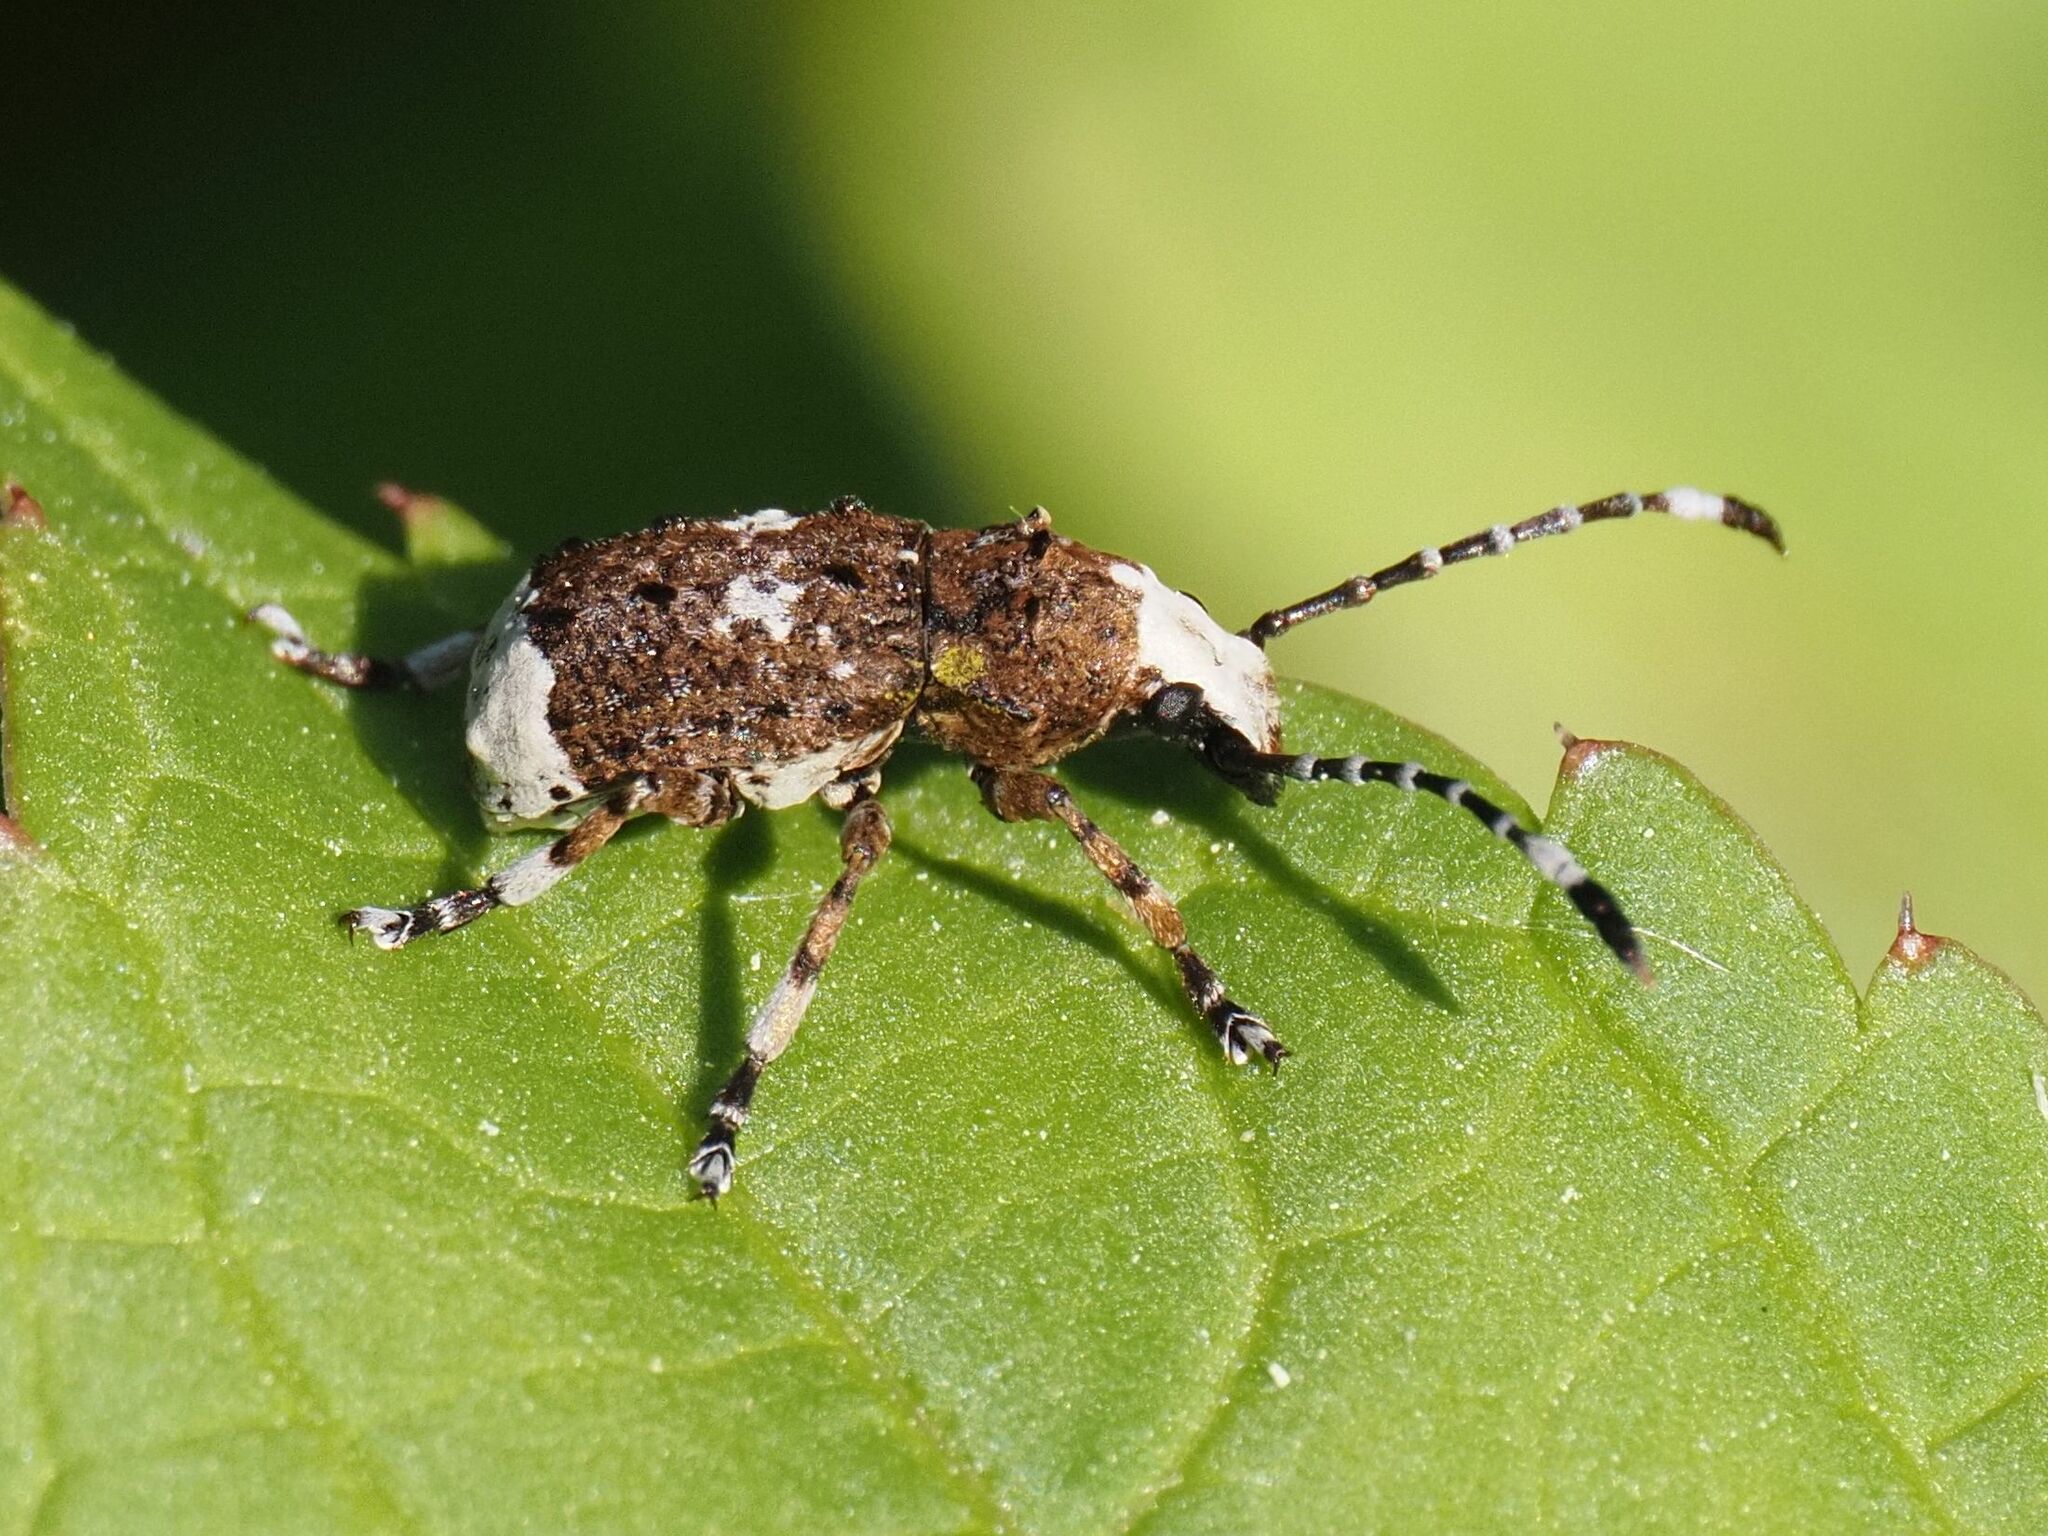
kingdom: Animalia
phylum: Arthropoda
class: Insecta
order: Coleoptera
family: Anthribidae
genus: Platystomos
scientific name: Platystomos albinus
